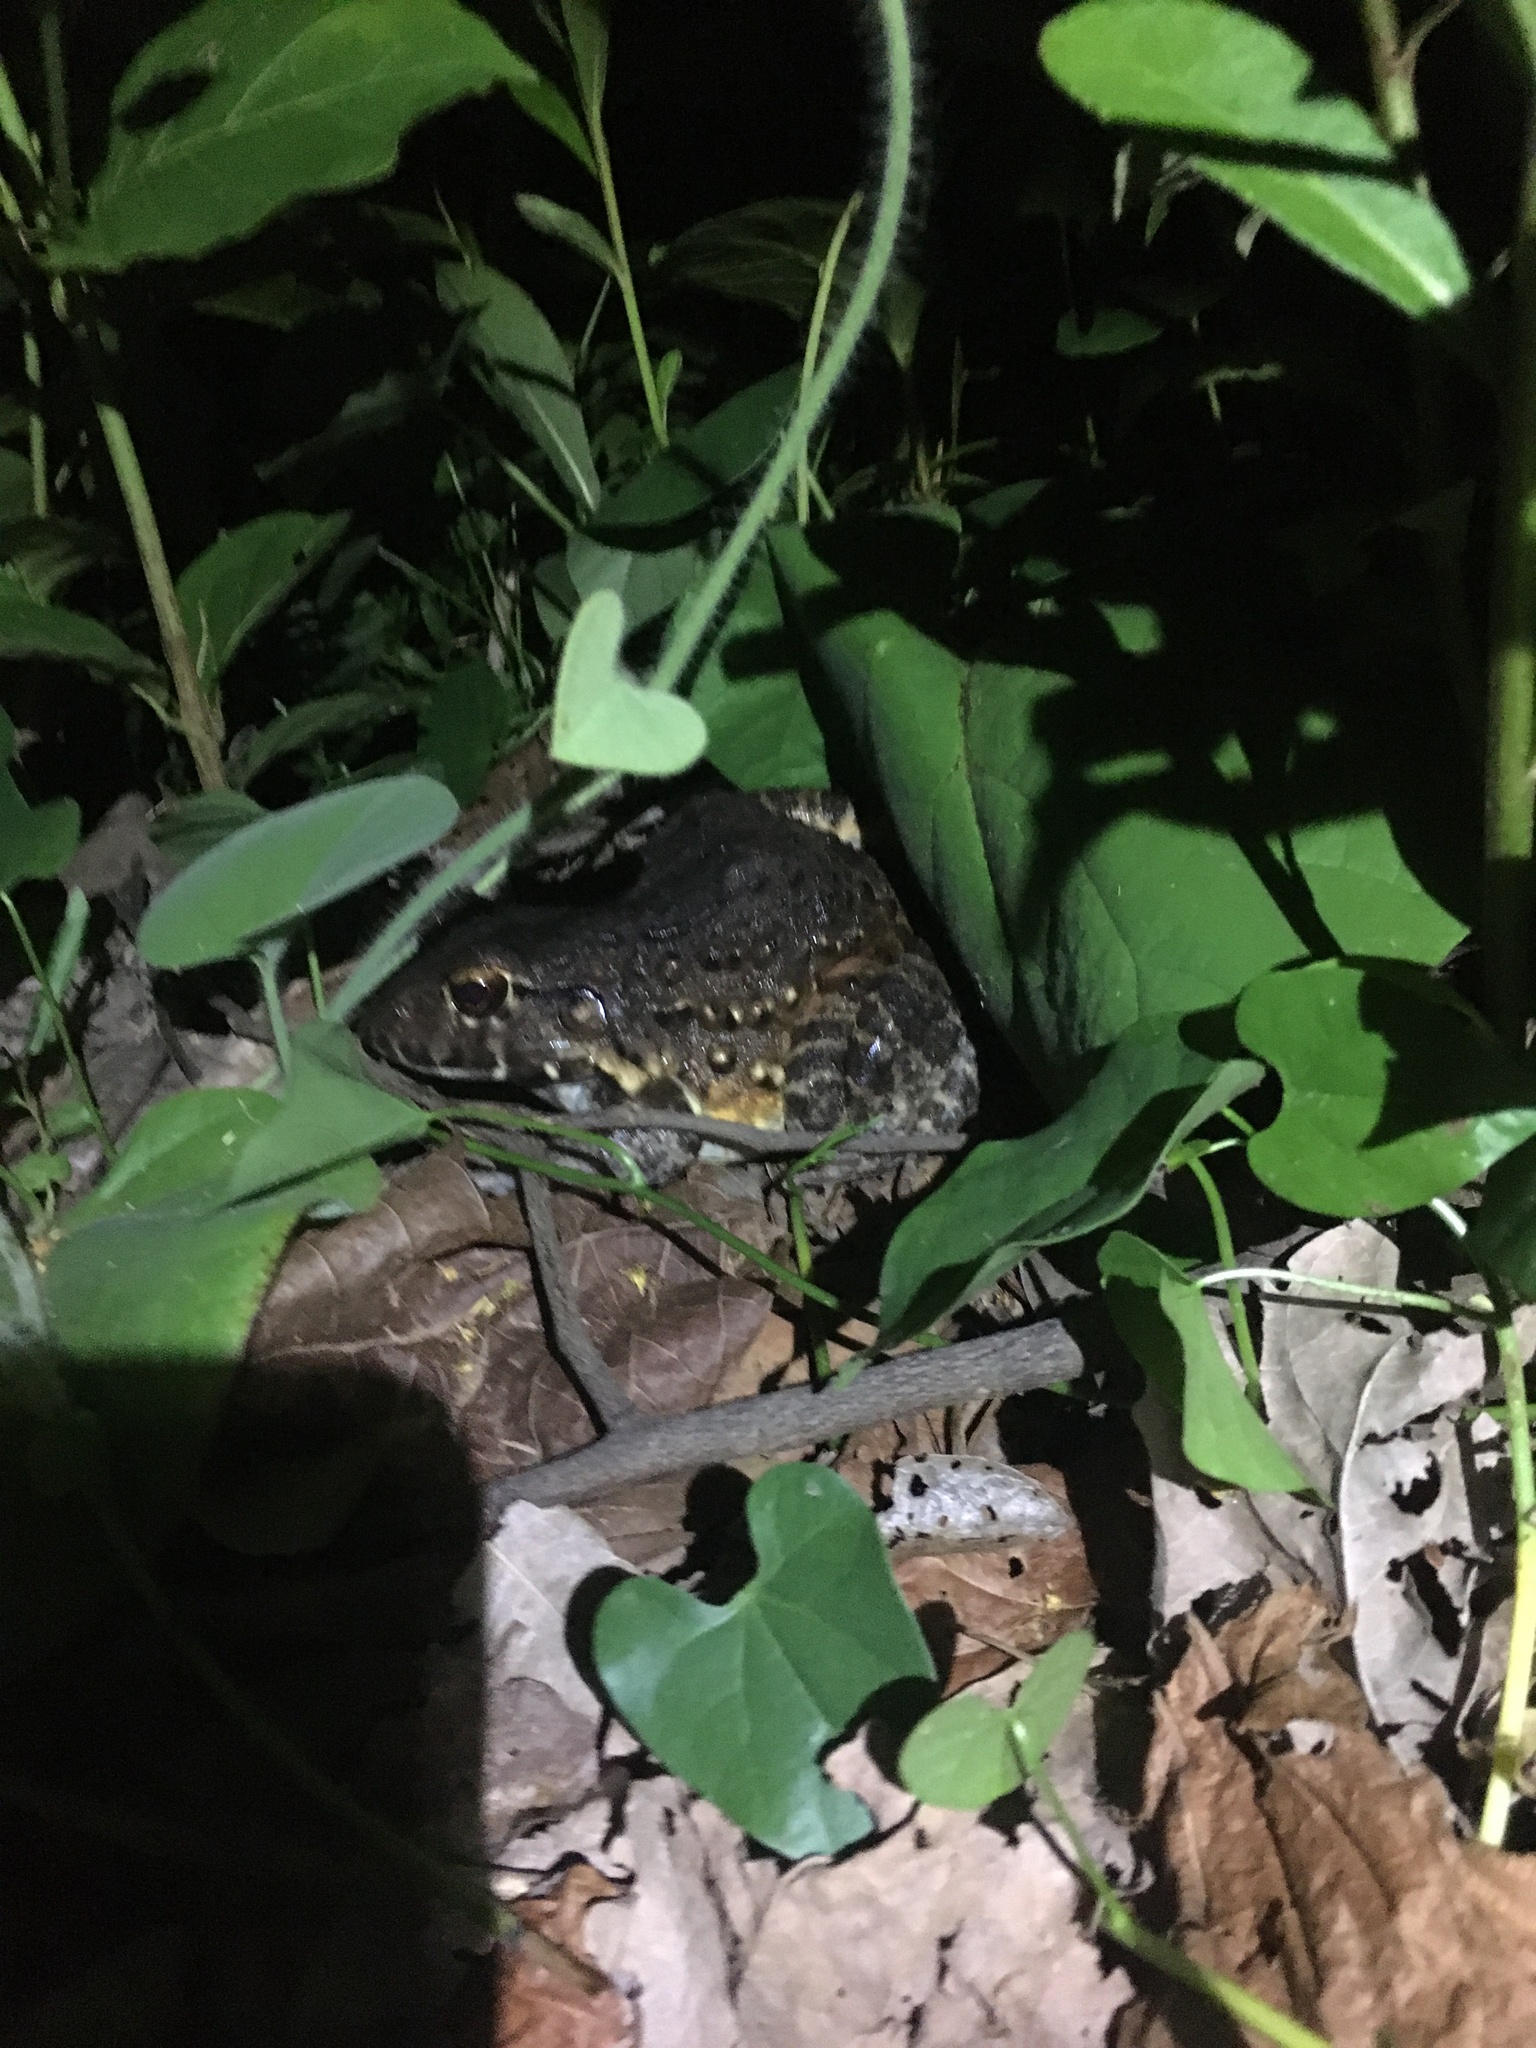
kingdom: Animalia
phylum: Chordata
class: Amphibia
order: Anura
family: Leptodactylidae
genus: Leptodactylus
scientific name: Leptodactylus labyrinthicus
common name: Labyrinth frog
